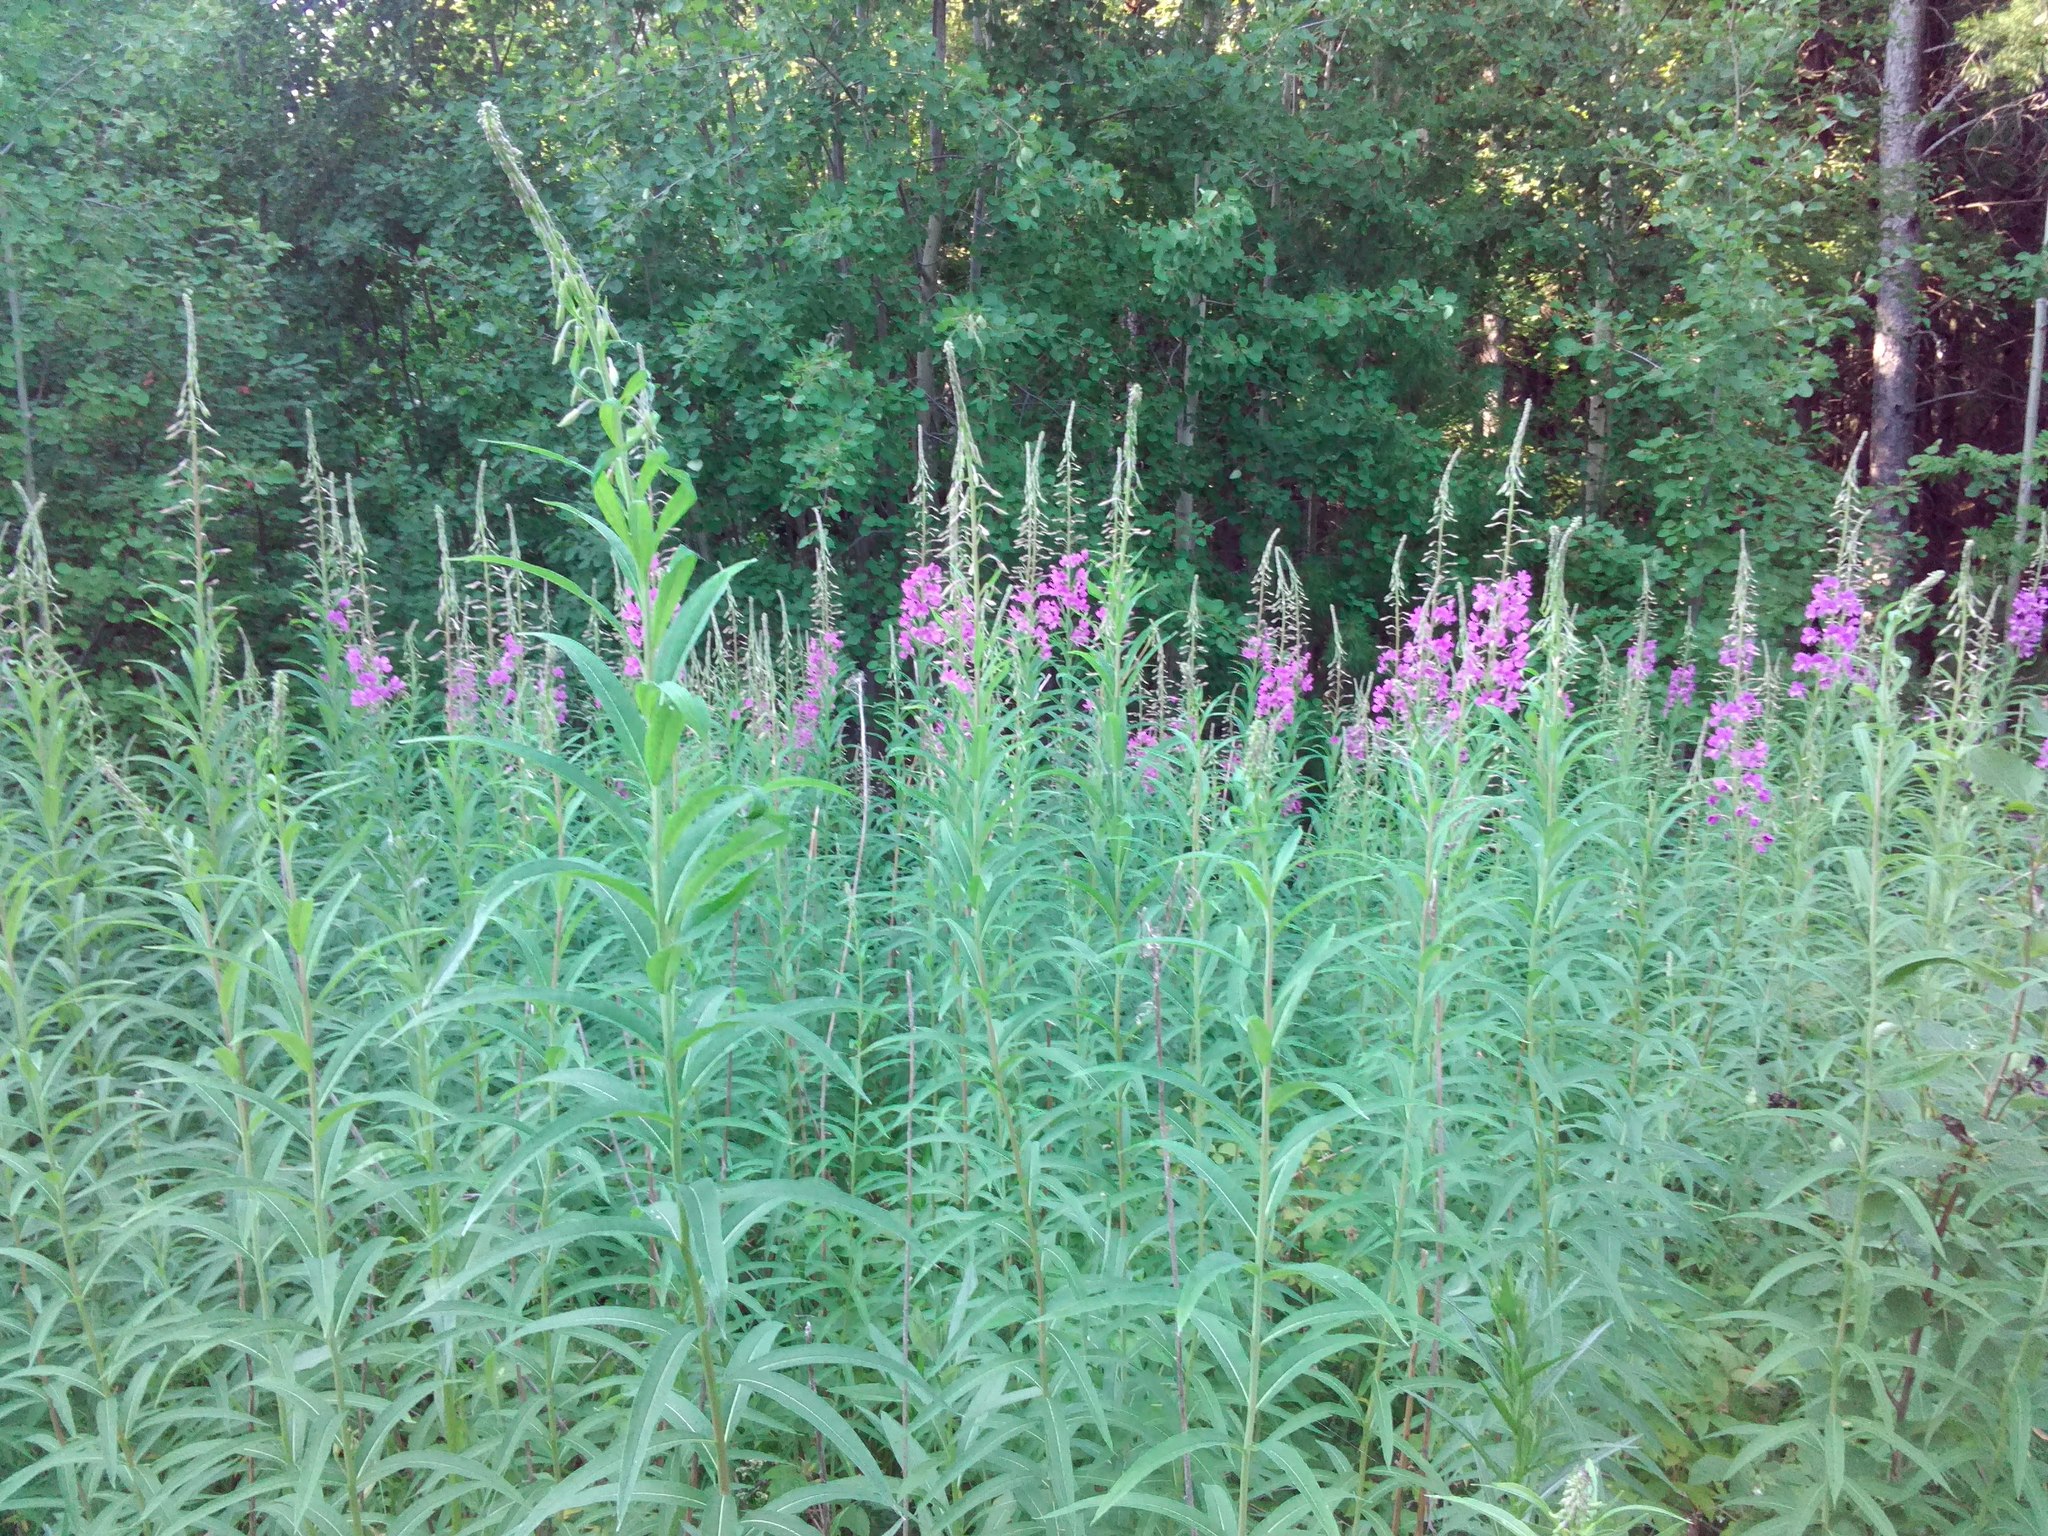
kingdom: Plantae
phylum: Tracheophyta
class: Magnoliopsida
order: Myrtales
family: Onagraceae
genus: Chamaenerion
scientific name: Chamaenerion angustifolium
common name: Fireweed
